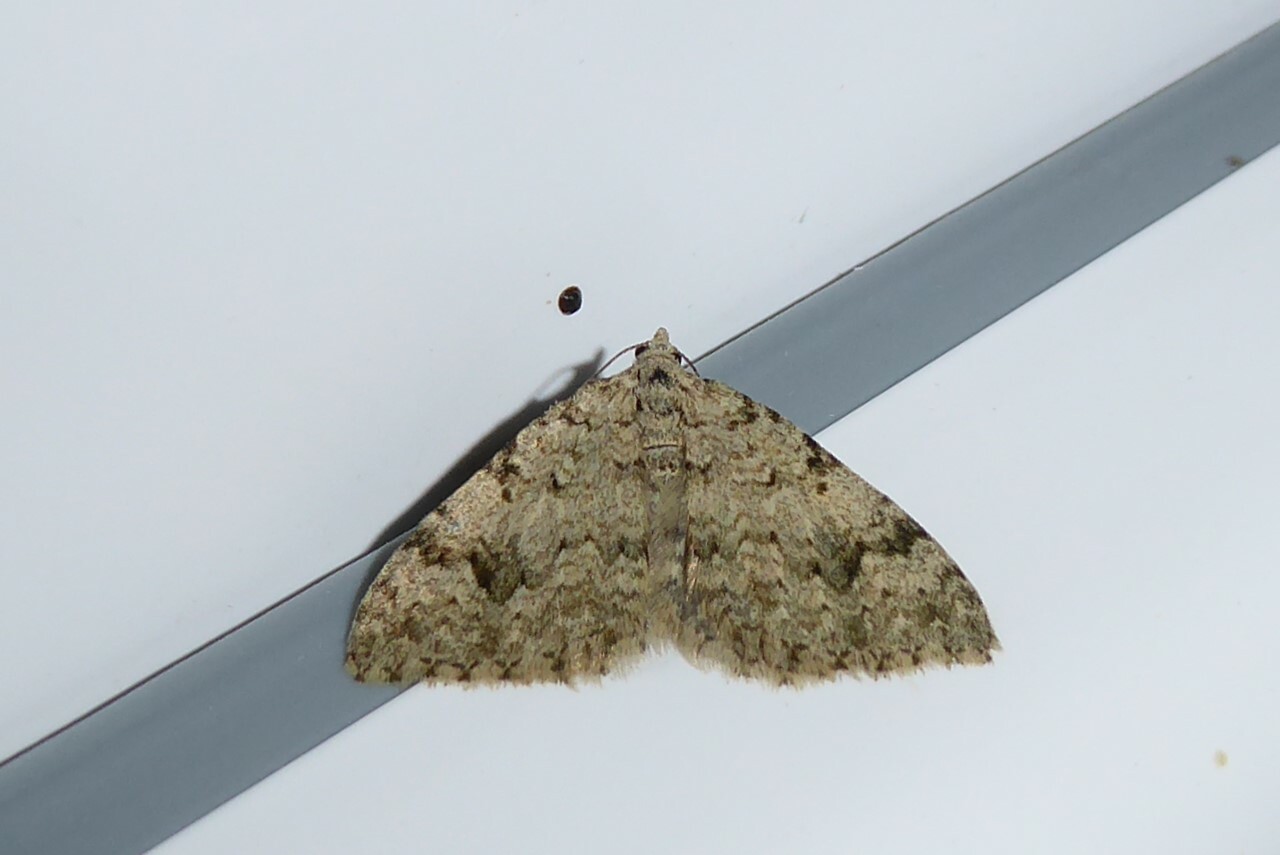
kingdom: Animalia
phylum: Arthropoda
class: Insecta
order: Lepidoptera
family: Geometridae
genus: Helastia
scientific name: Helastia cinerearia
